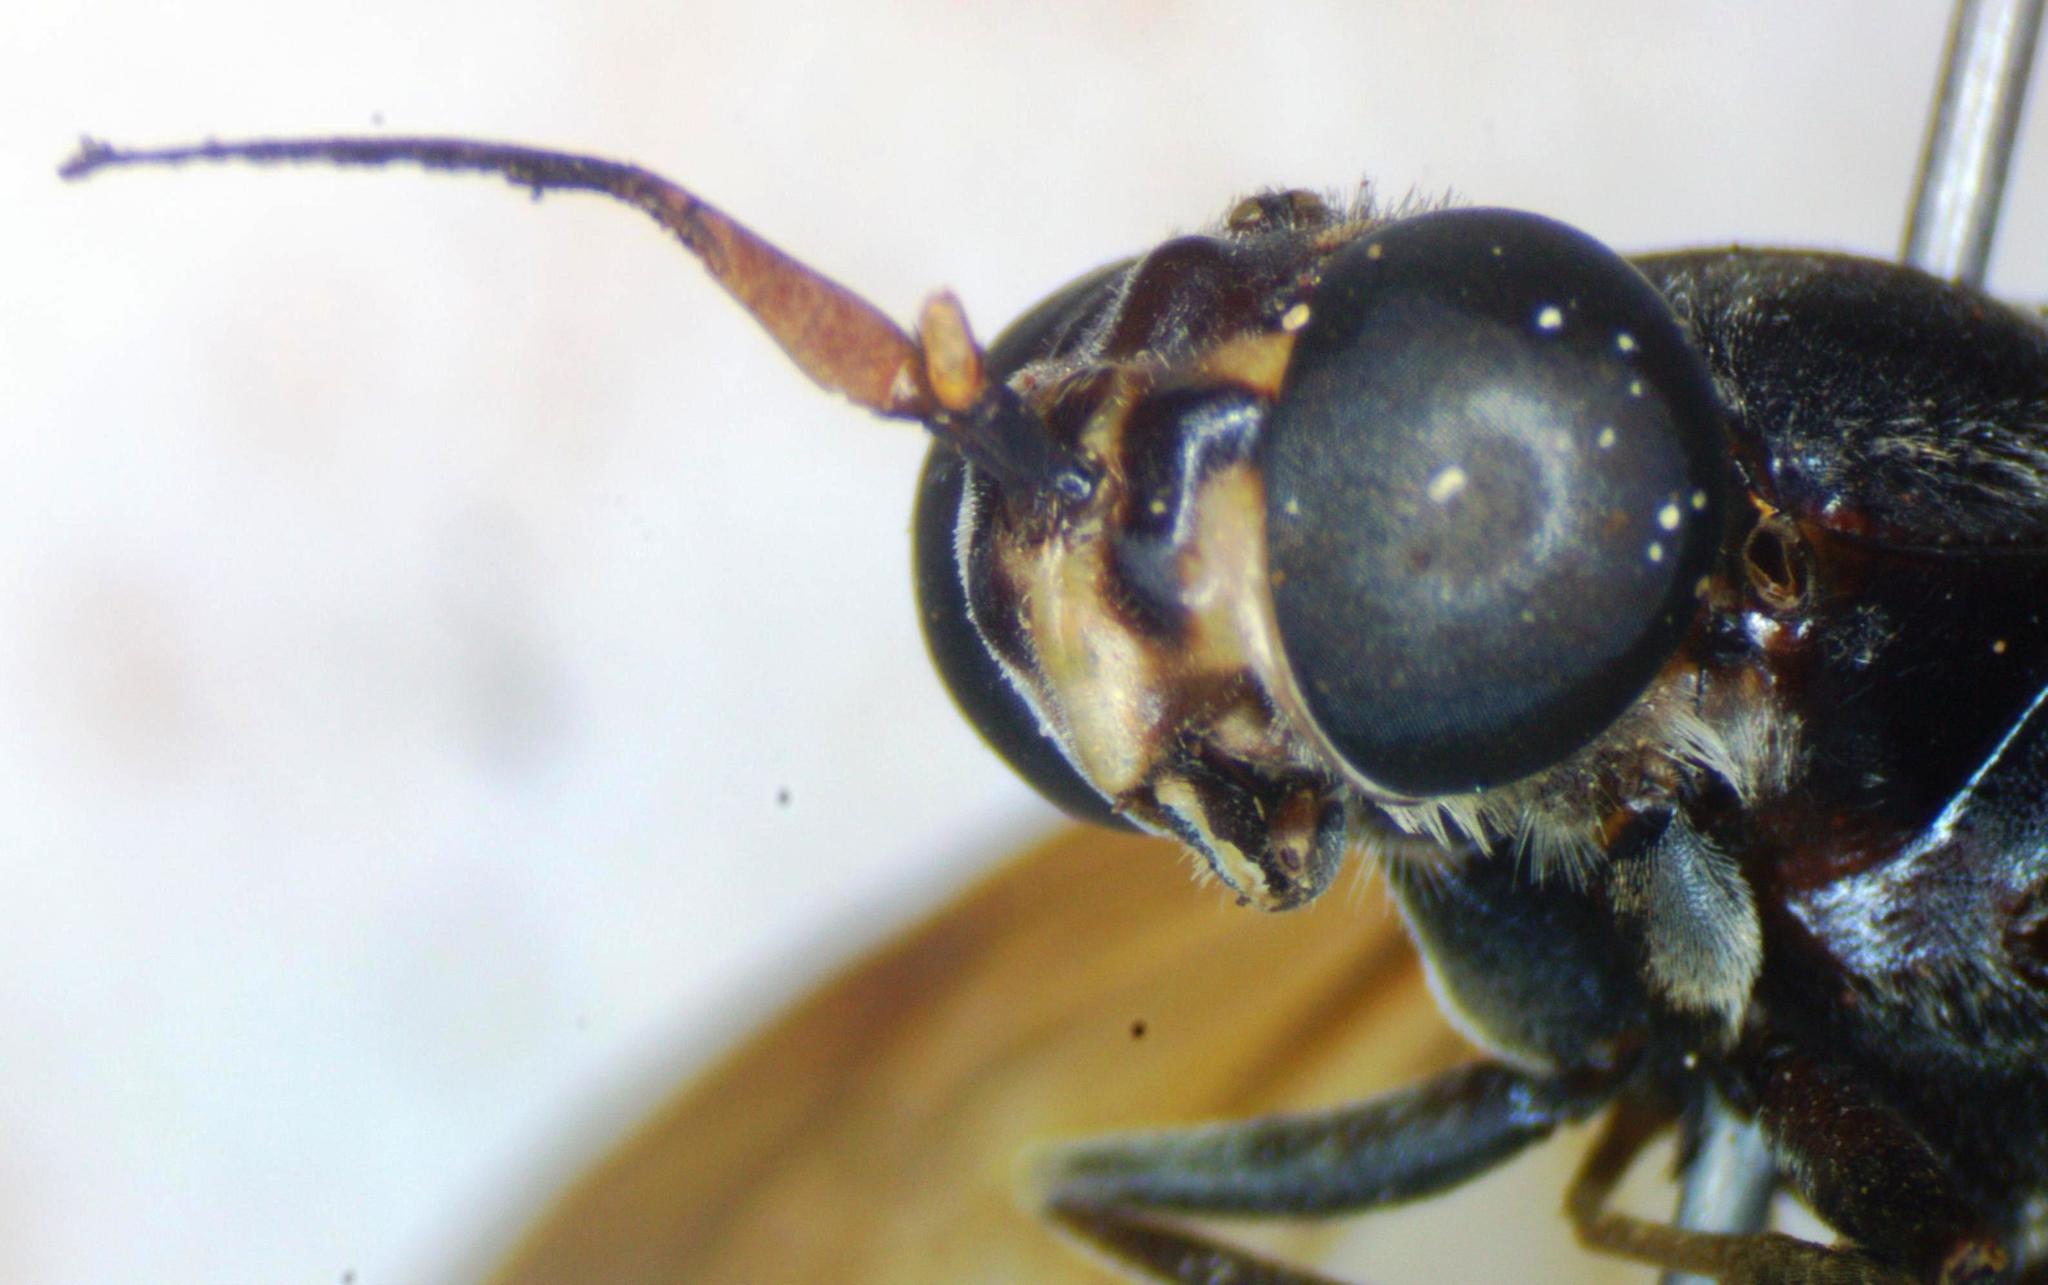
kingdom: Animalia
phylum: Arthropoda
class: Insecta
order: Diptera
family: Stratiomyidae
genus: Hermetia
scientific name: Hermetia illucens
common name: Black soldier fly
